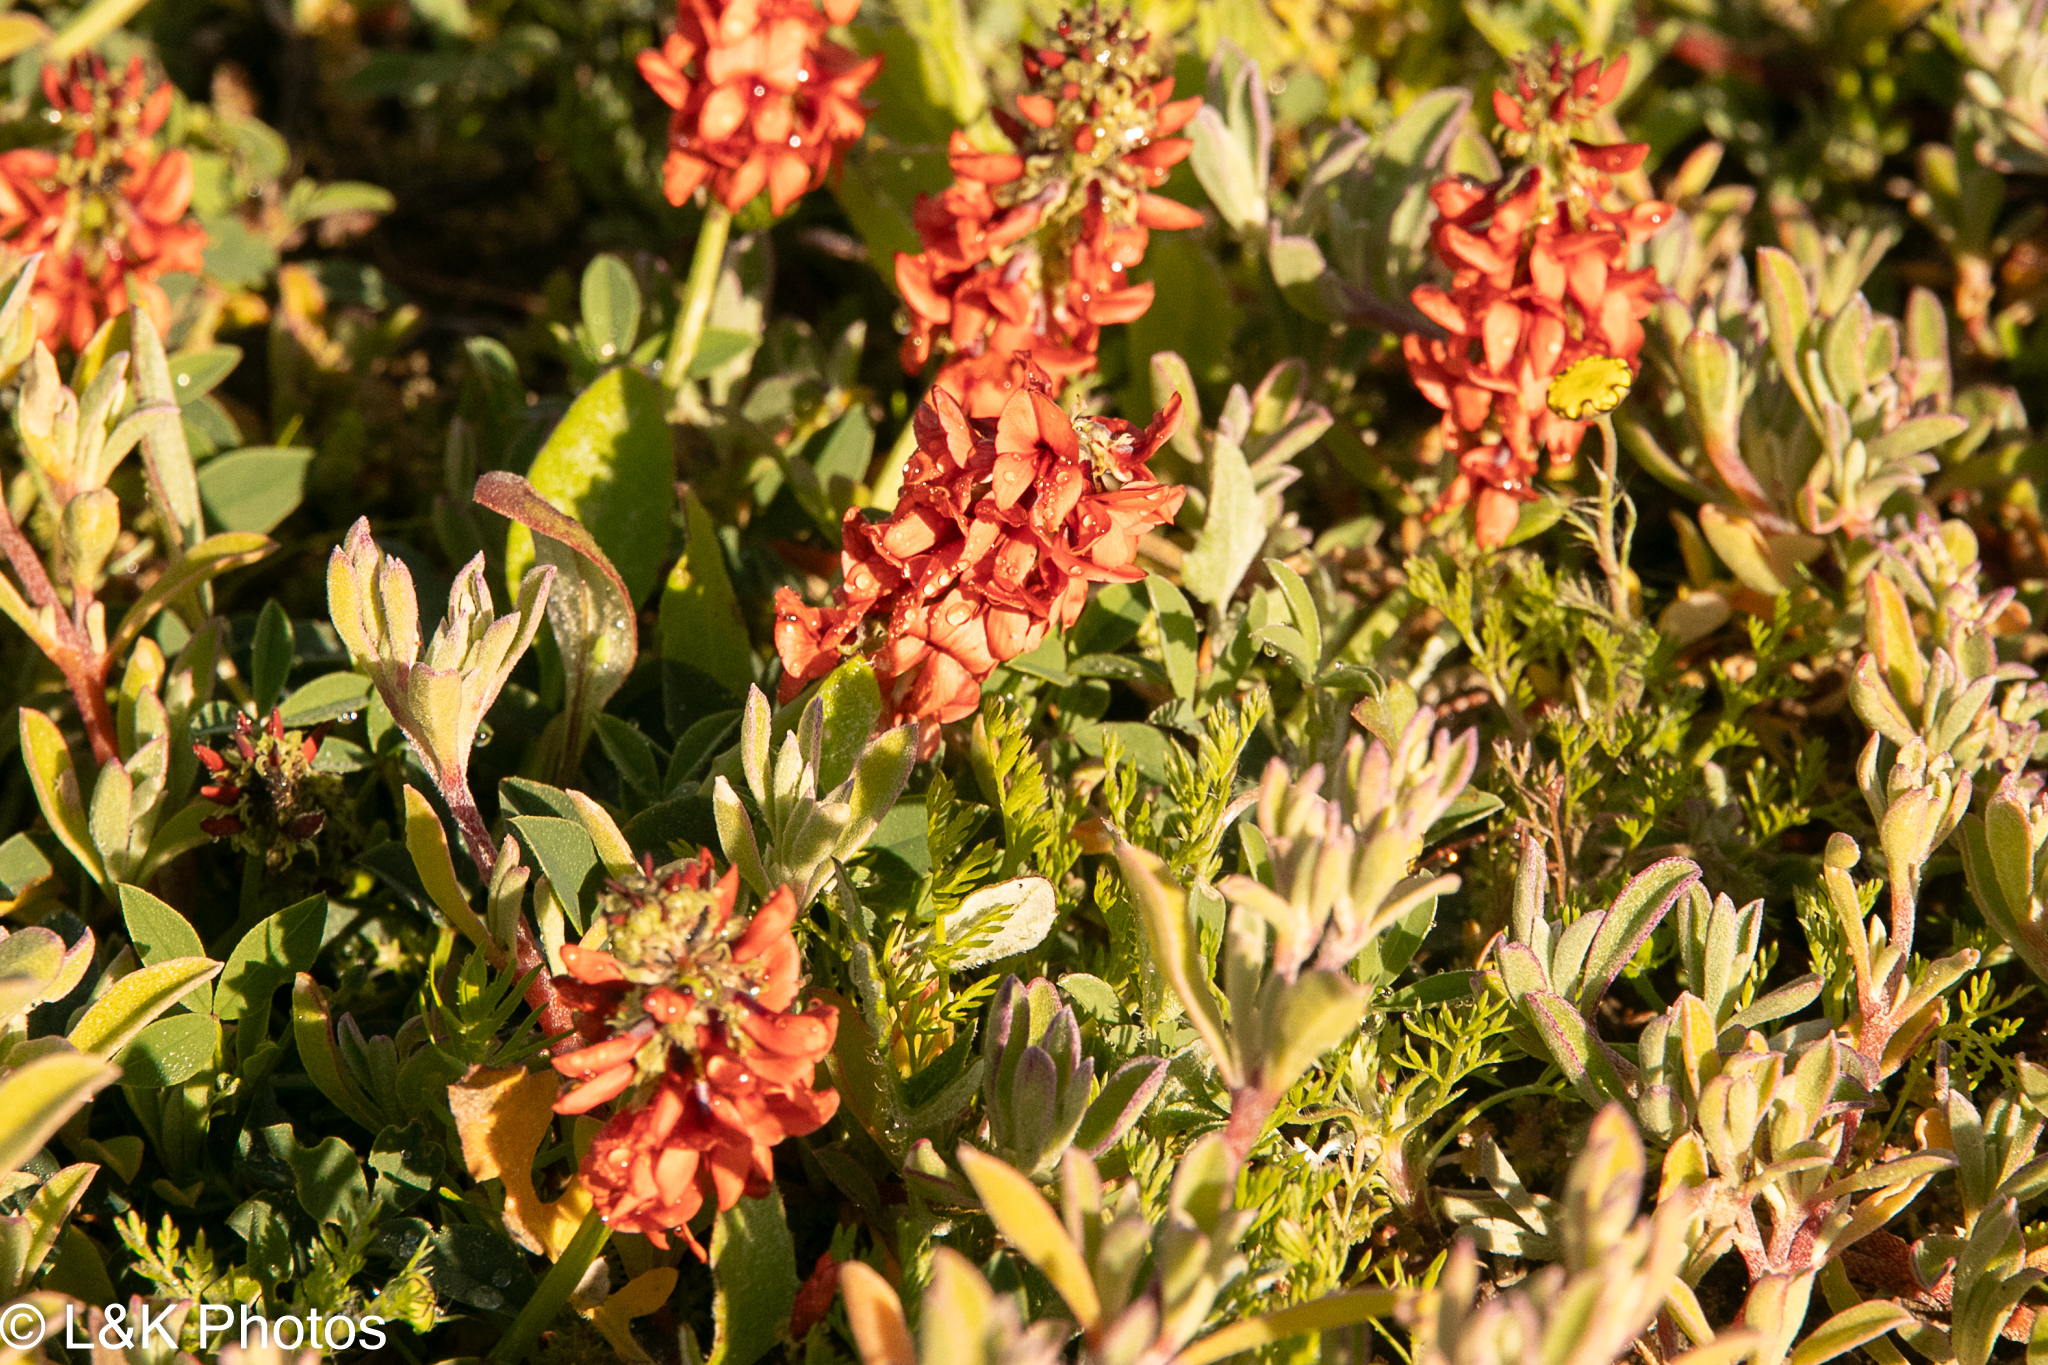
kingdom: Plantae
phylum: Tracheophyta
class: Magnoliopsida
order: Fabales
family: Fabaceae
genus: Indigofera
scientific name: Indigofera
